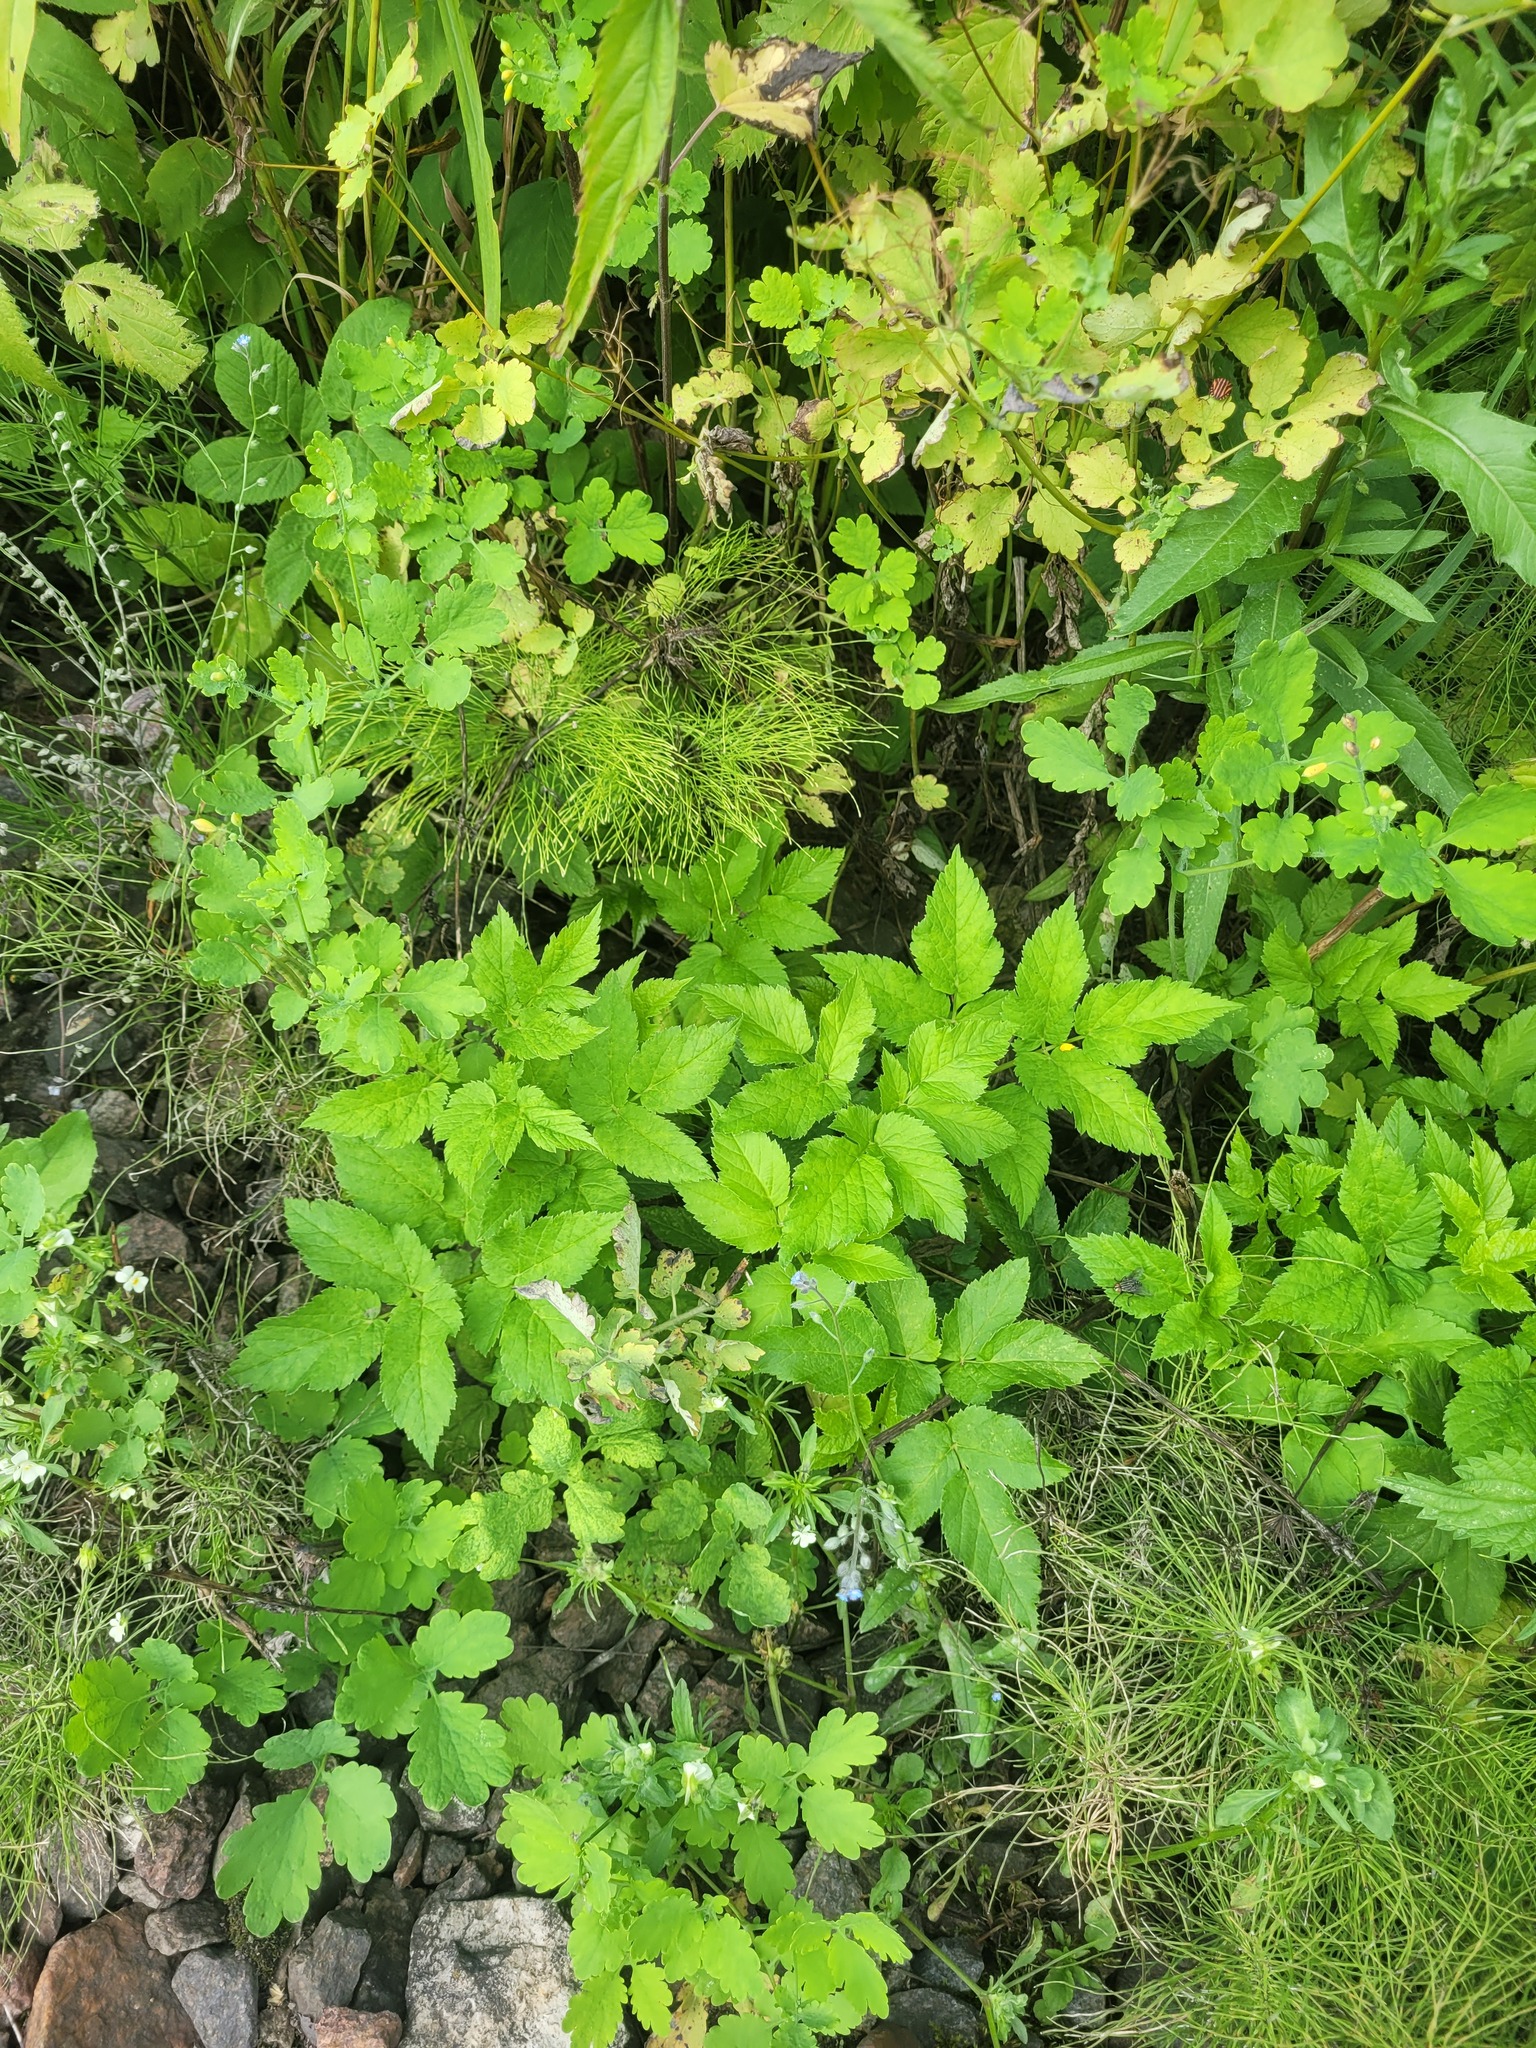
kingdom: Plantae
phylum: Tracheophyta
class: Magnoliopsida
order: Apiales
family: Apiaceae
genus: Aegopodium
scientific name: Aegopodium podagraria
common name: Ground-elder
